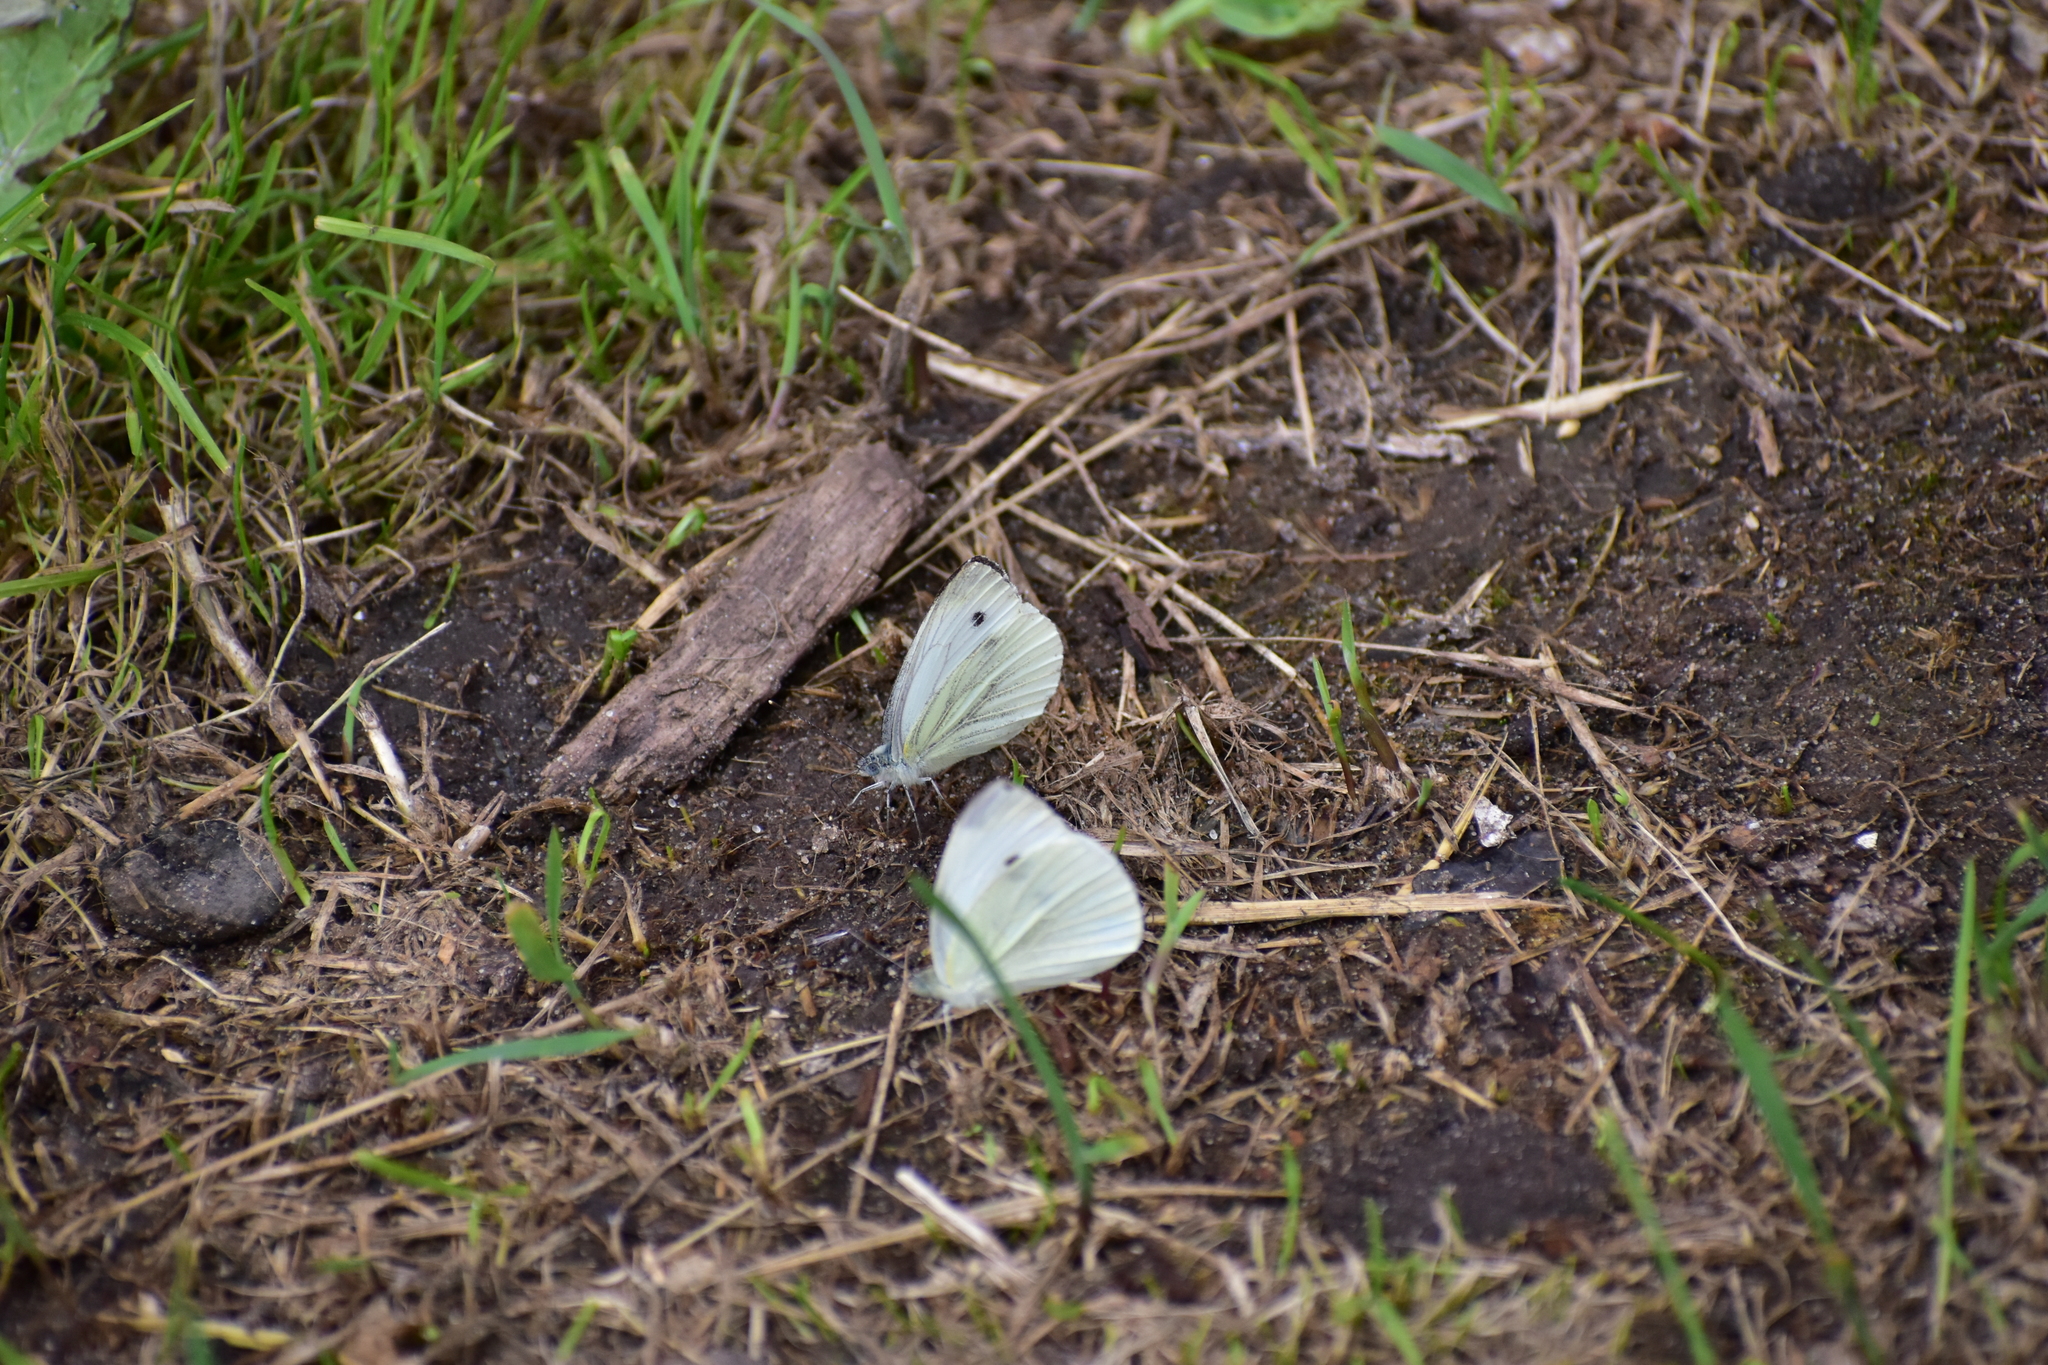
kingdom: Animalia
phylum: Arthropoda
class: Insecta
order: Lepidoptera
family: Pieridae
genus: Pieris
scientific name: Pieris
